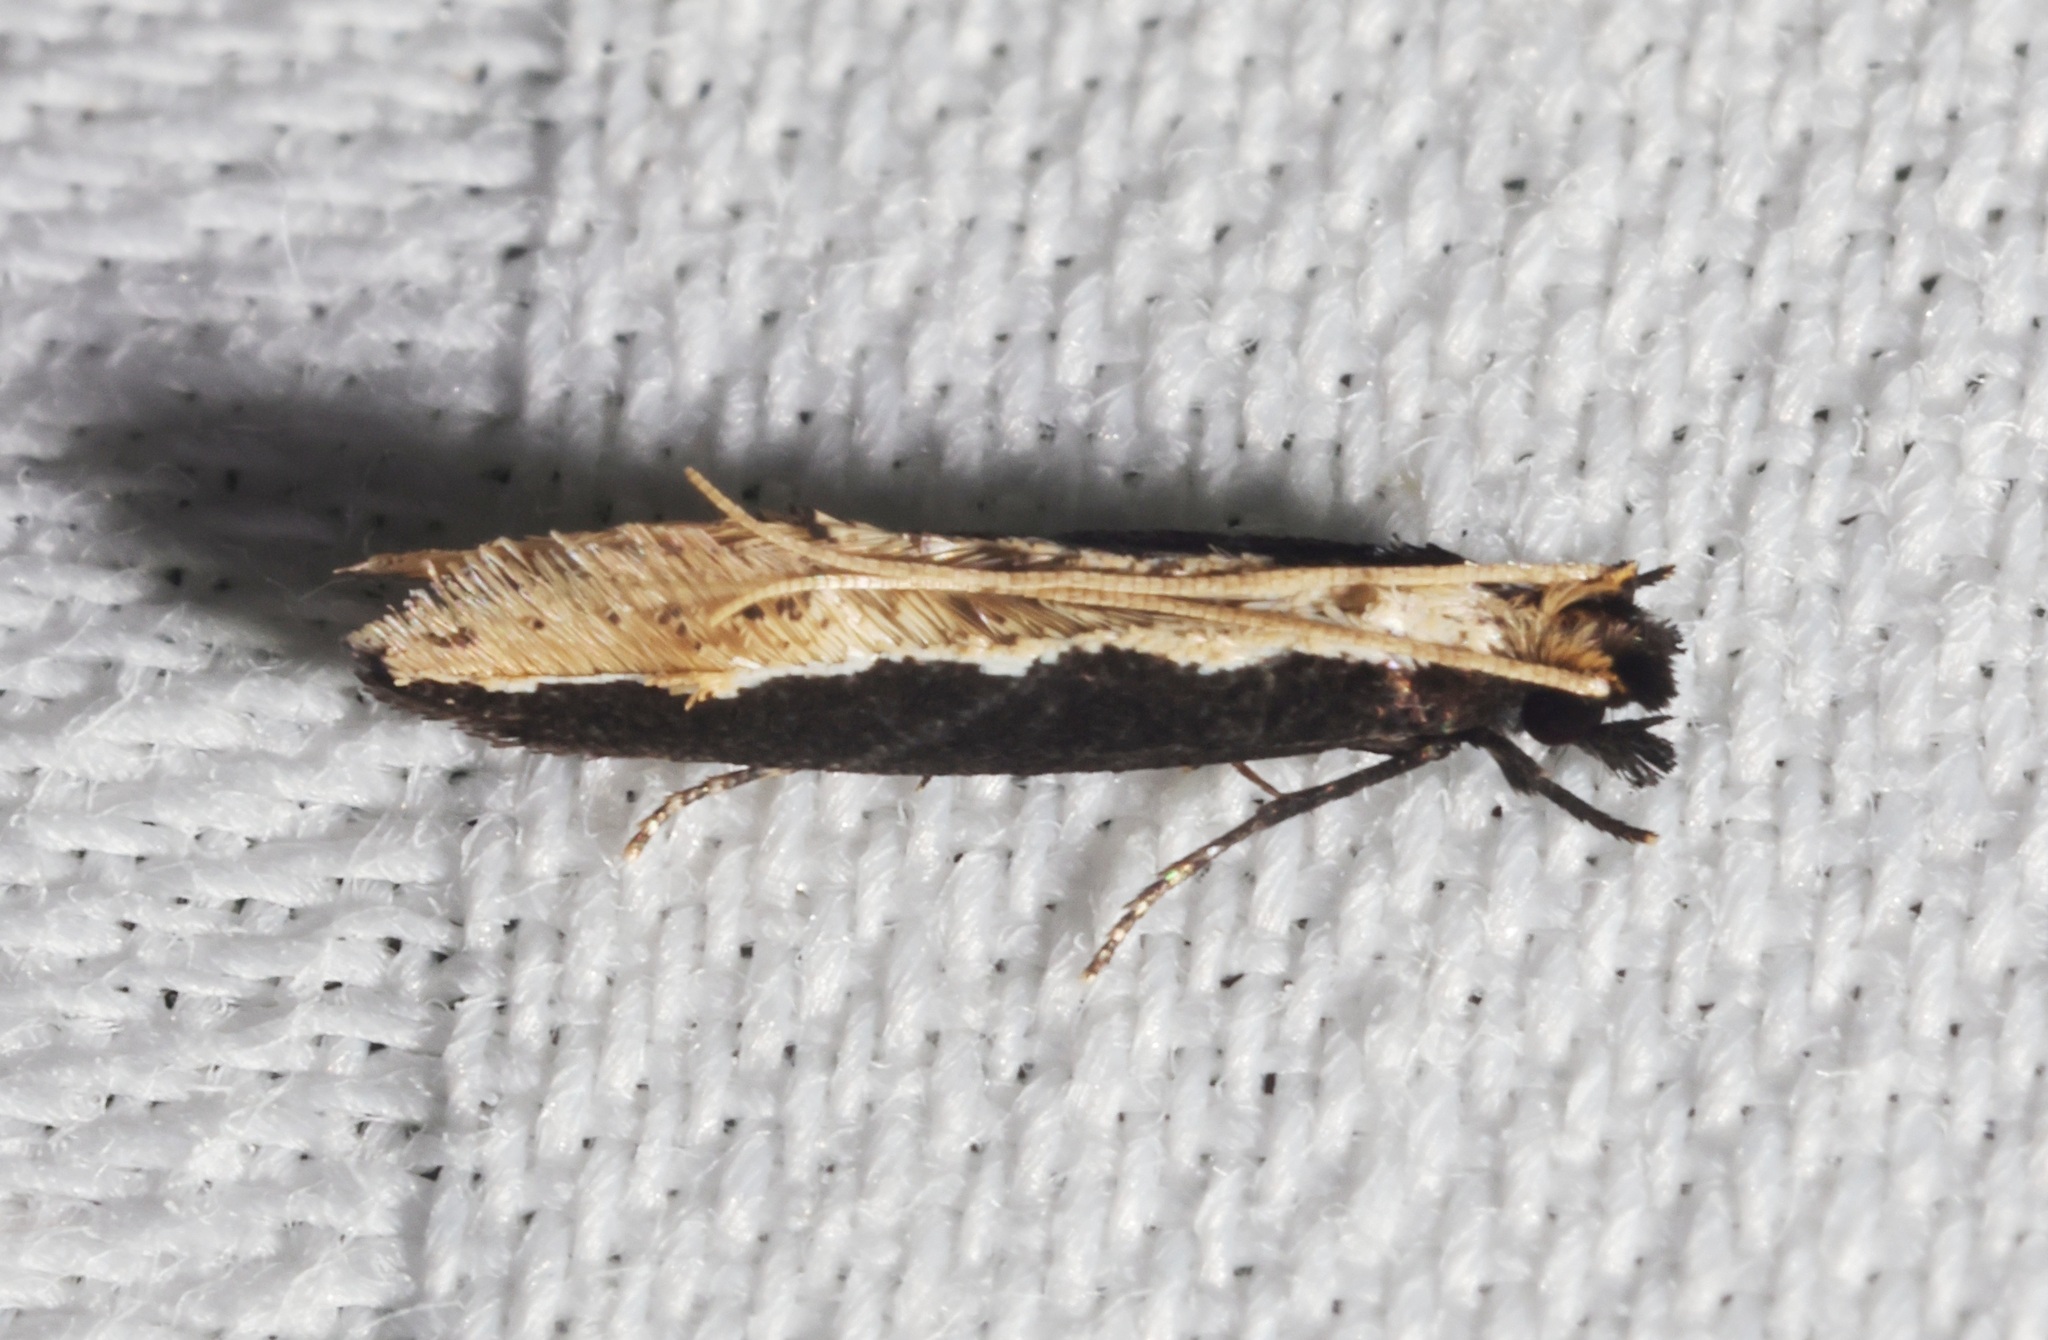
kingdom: Animalia
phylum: Arthropoda
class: Insecta
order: Lepidoptera
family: Tineidae
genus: Pyloetis
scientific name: Pyloetis mimosae
